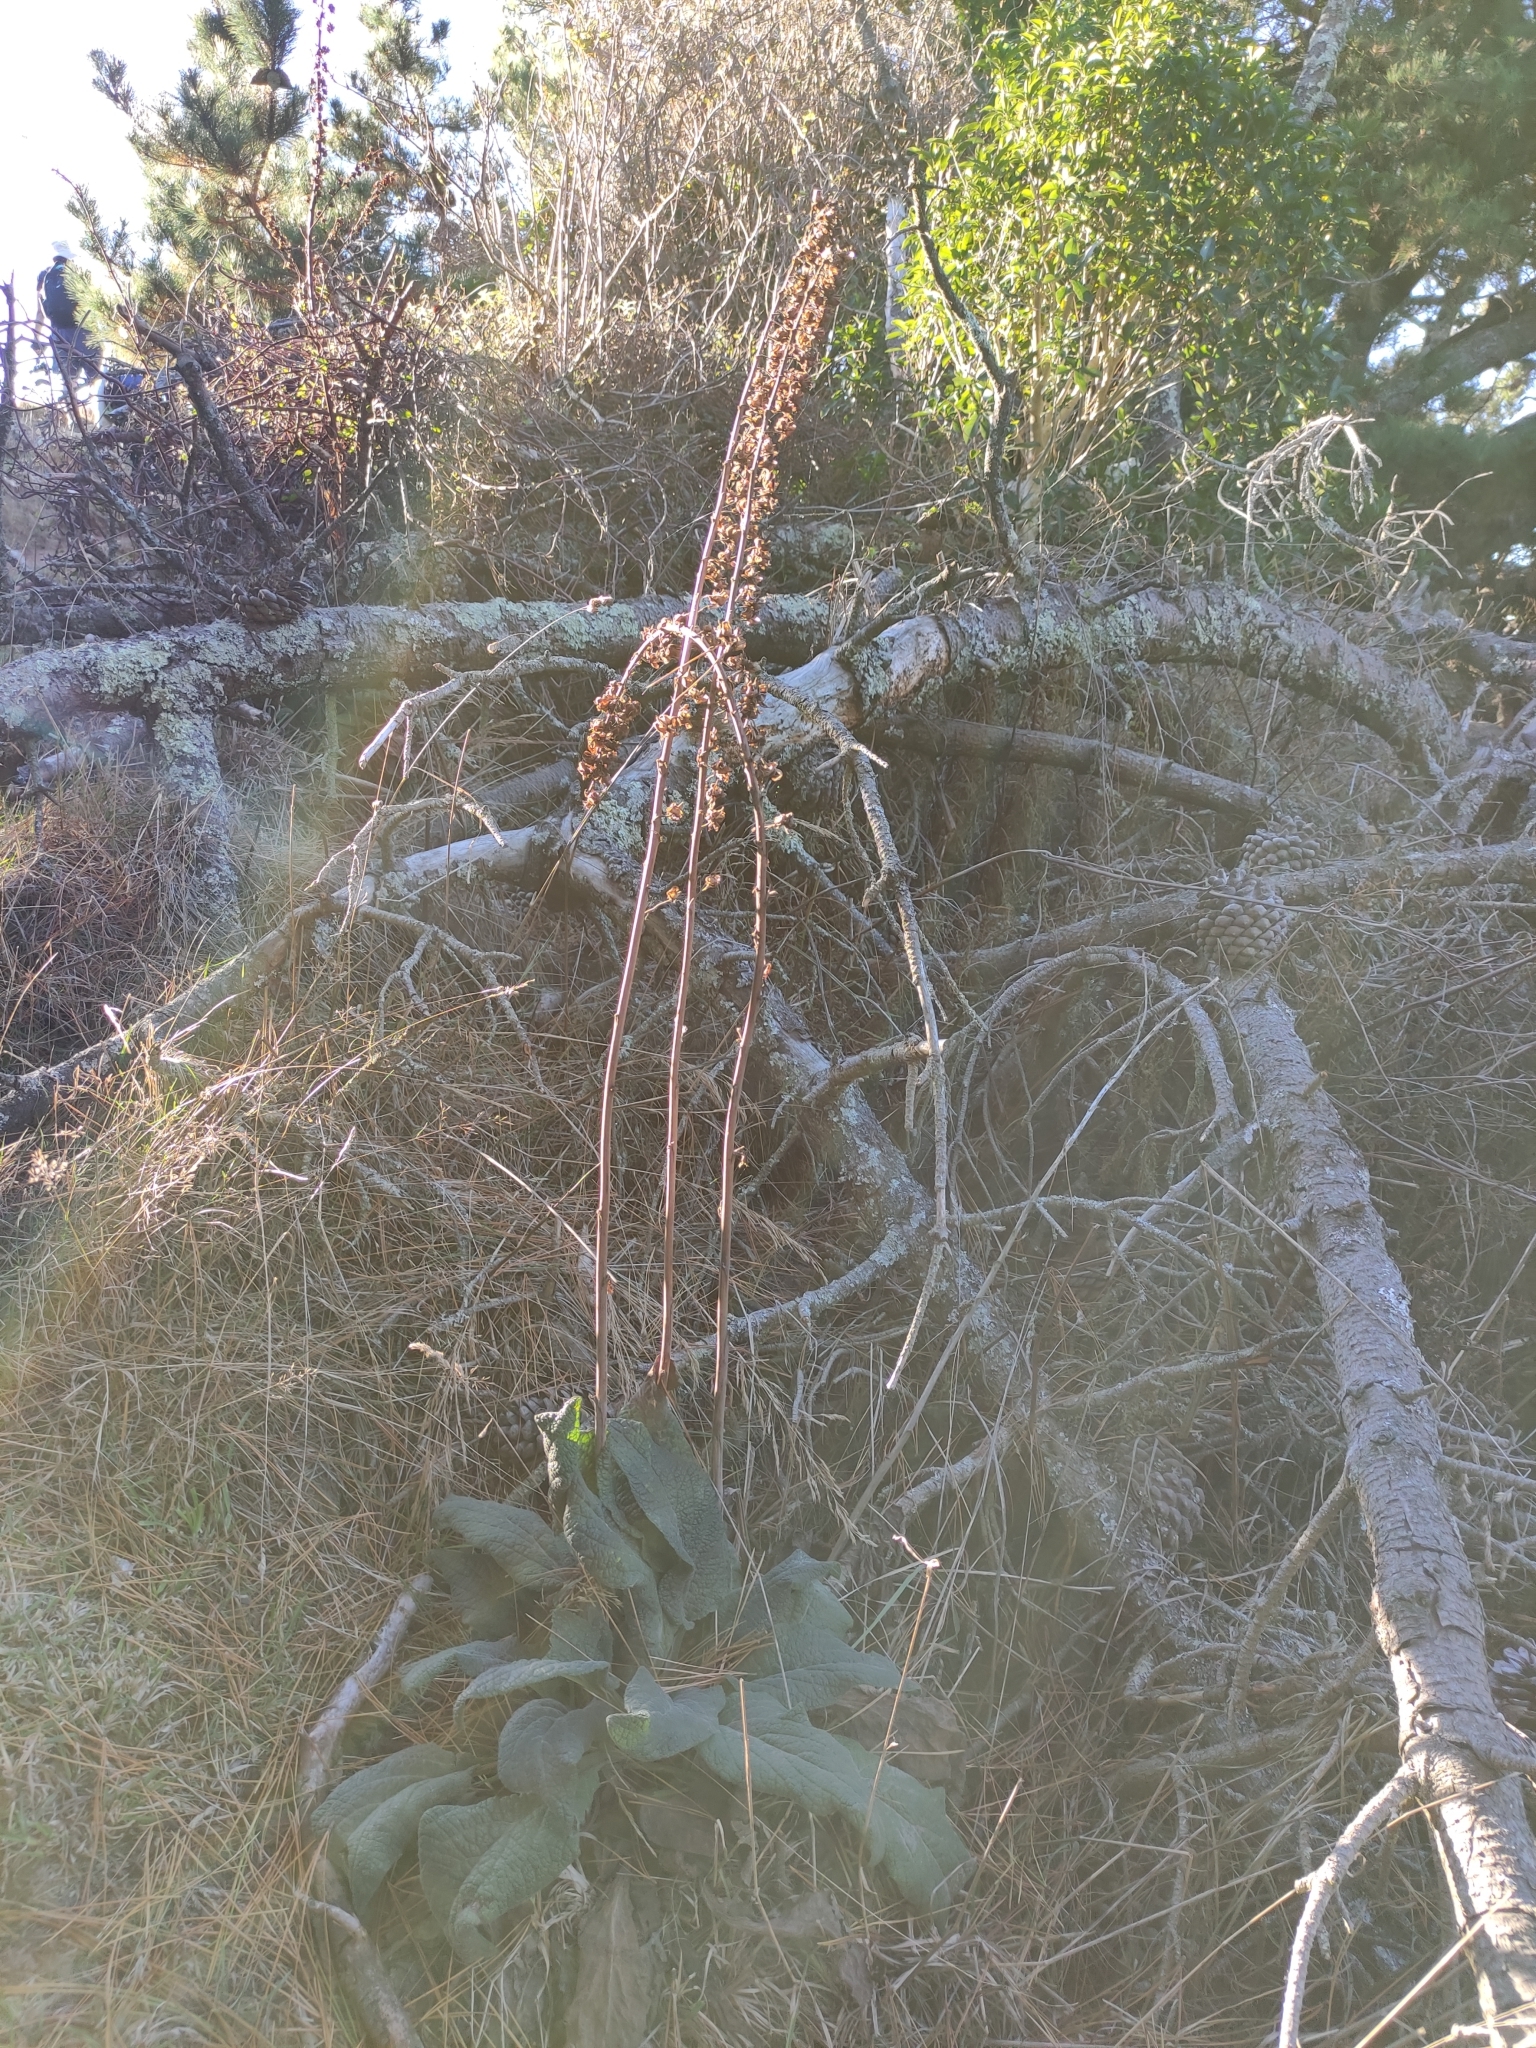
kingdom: Plantae
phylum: Tracheophyta
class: Magnoliopsida
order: Lamiales
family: Plantaginaceae
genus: Digitalis
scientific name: Digitalis purpurea
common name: Foxglove
